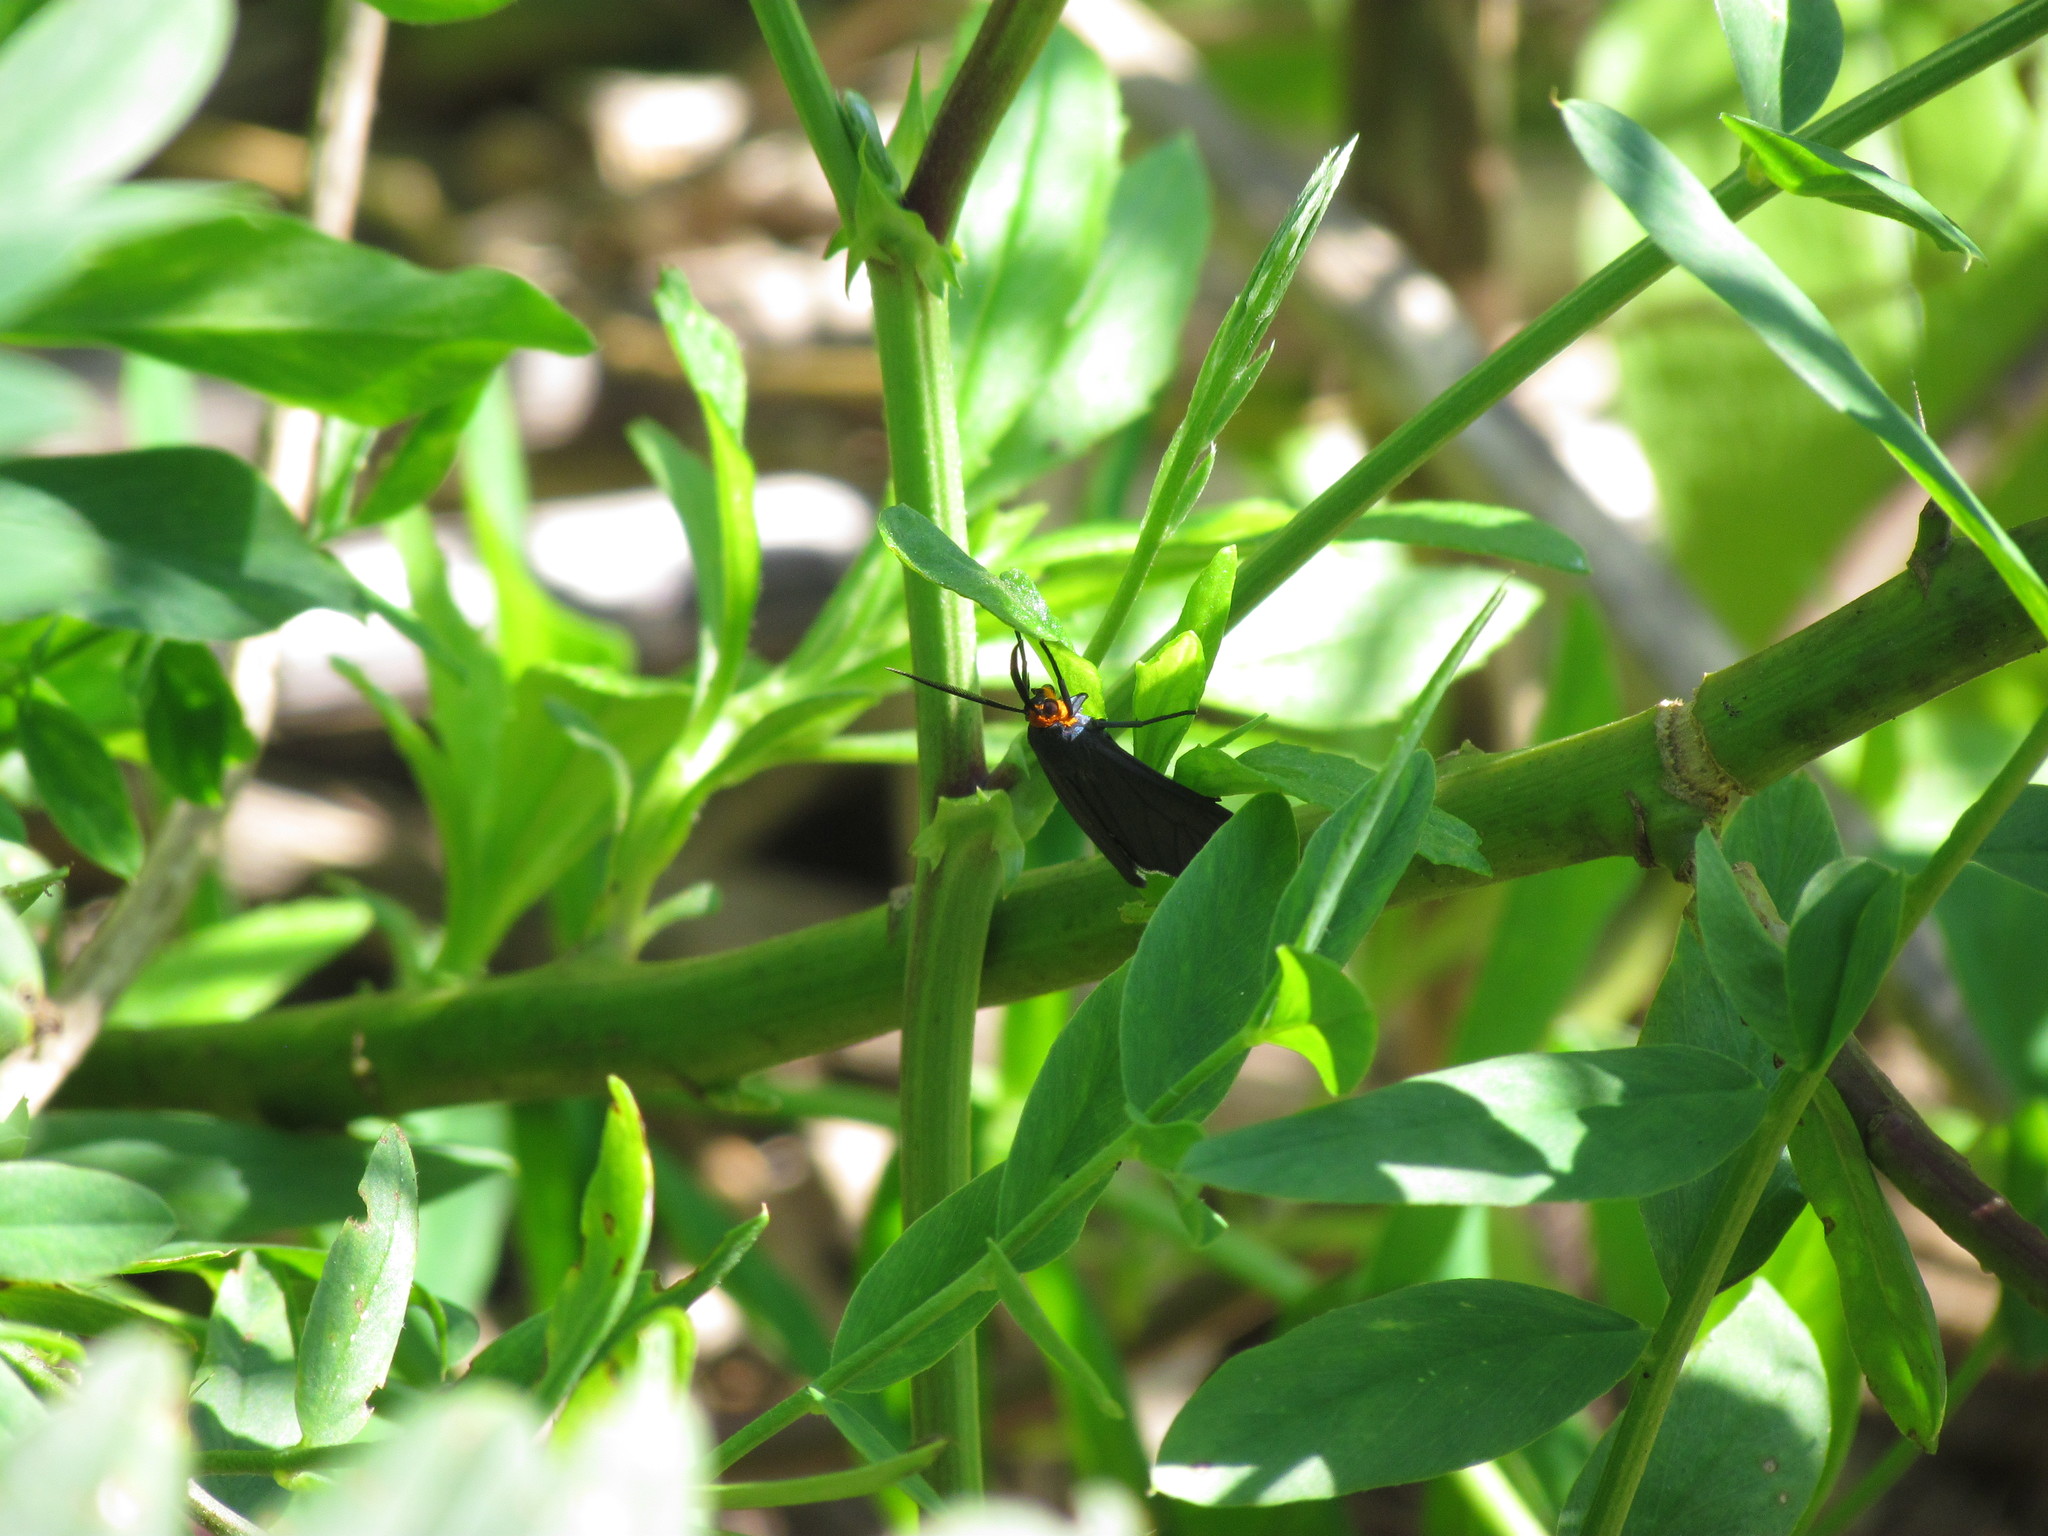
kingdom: Animalia
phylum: Arthropoda
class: Insecta
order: Lepidoptera
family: Erebidae
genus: Ctenucha
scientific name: Ctenucha rubriceps
